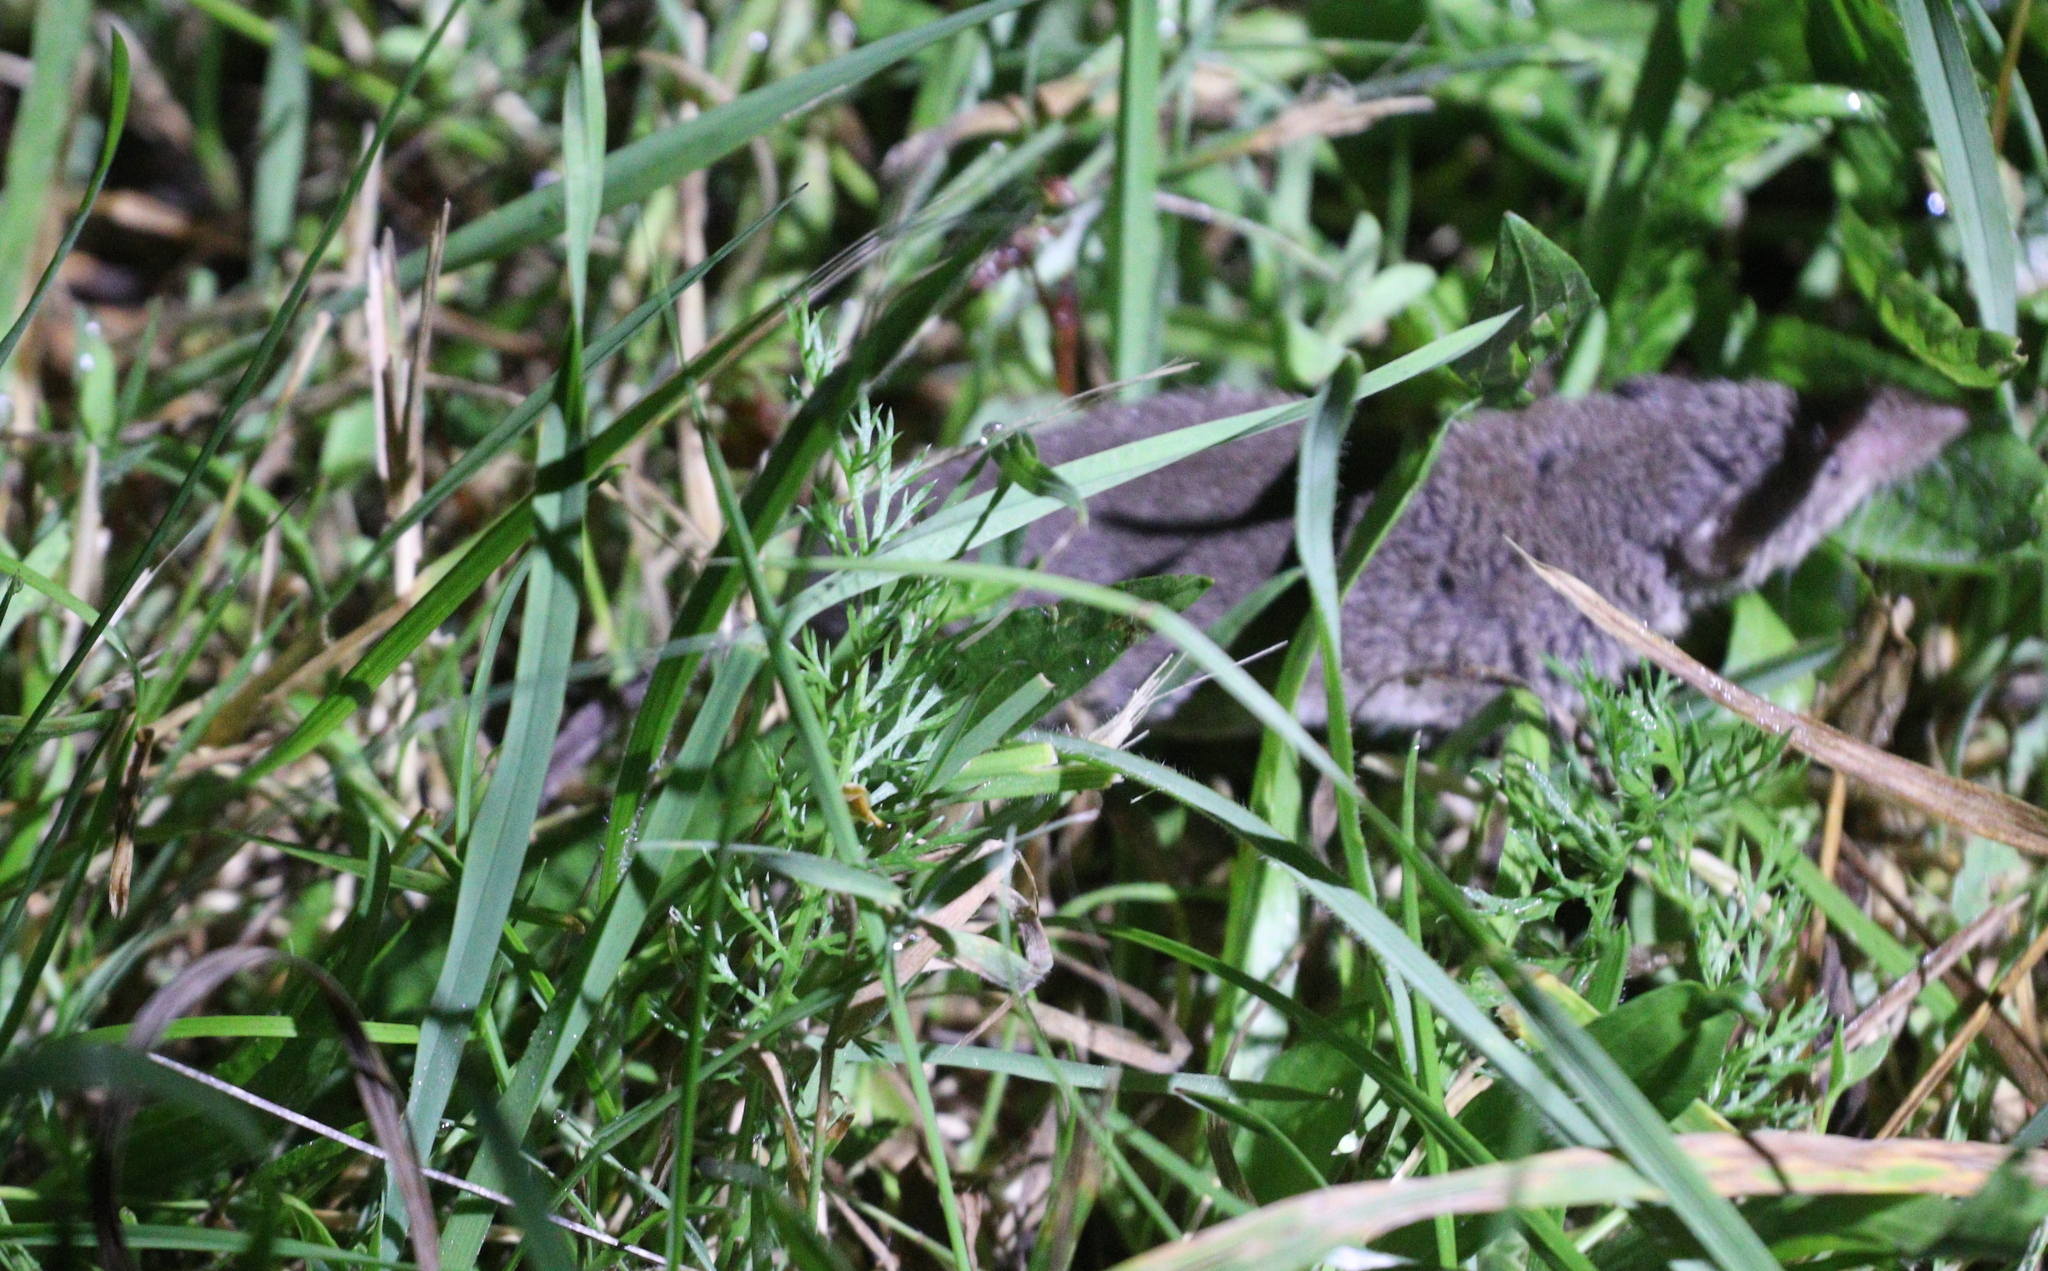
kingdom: Animalia
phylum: Chordata
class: Mammalia
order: Soricomorpha
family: Soricidae
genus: Crocidura
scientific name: Crocidura suaveolens
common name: Lesser white-toothed shrew
